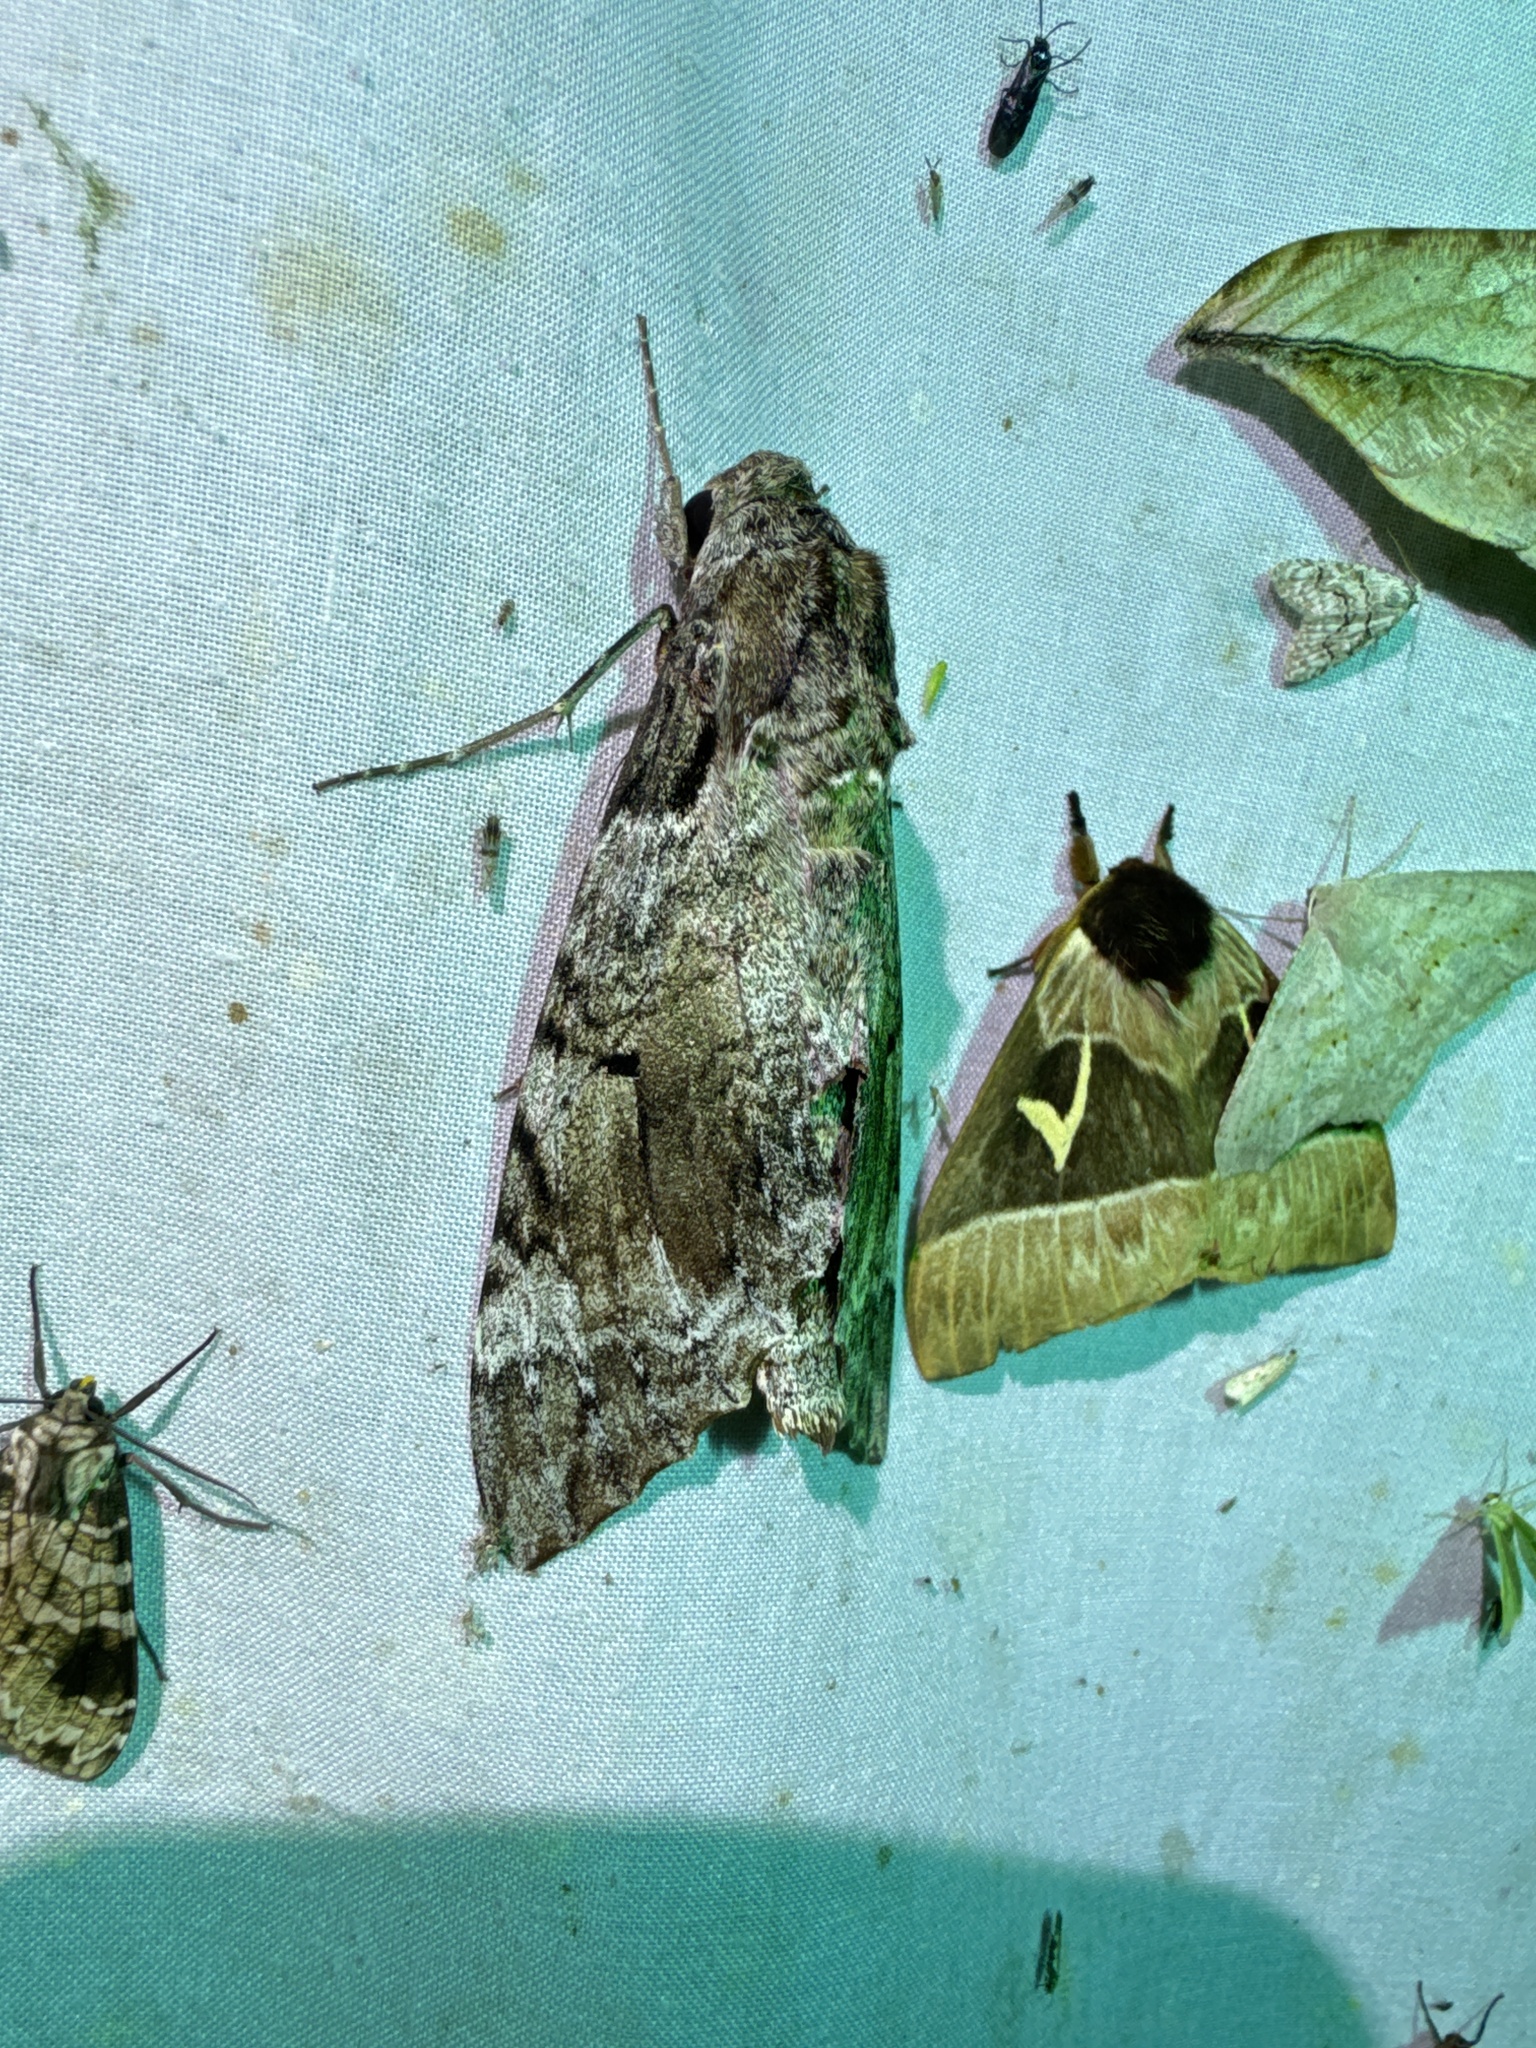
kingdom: Animalia
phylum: Arthropoda
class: Insecta
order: Lepidoptera
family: Sphingidae
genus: Pseudosphinx
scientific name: Pseudosphinx tetrio
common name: Tetrio sphinx
